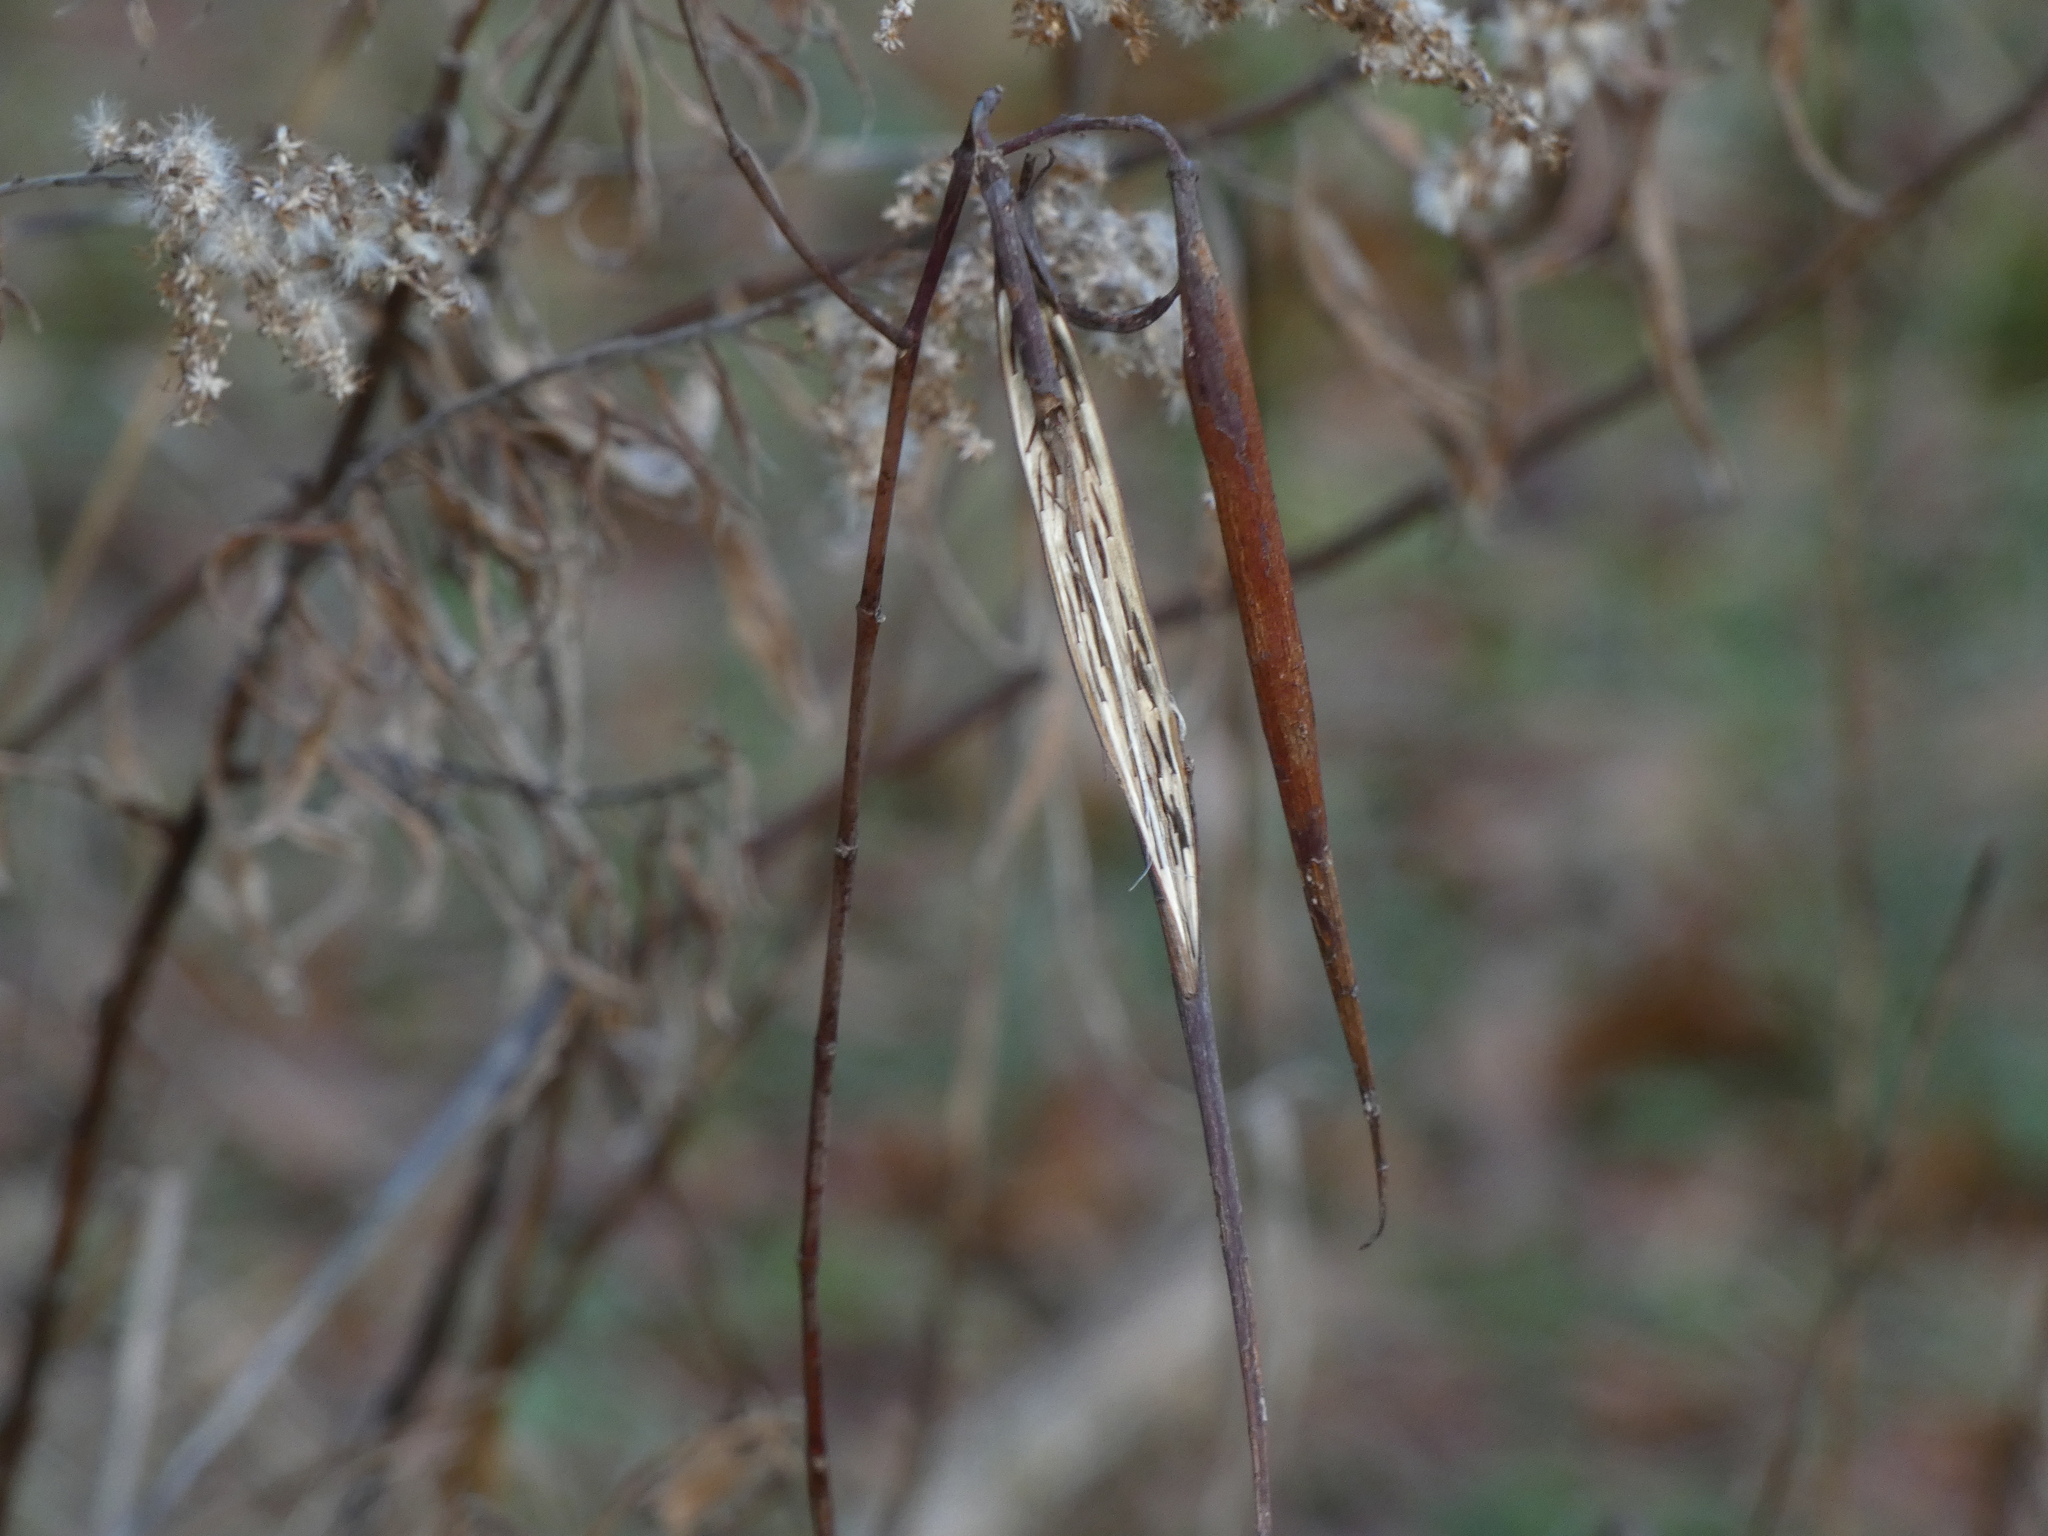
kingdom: Plantae
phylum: Tracheophyta
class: Magnoliopsida
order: Gentianales
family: Apocynaceae
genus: Apocynum
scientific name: Apocynum cannabinum
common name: Hemp dogbane
